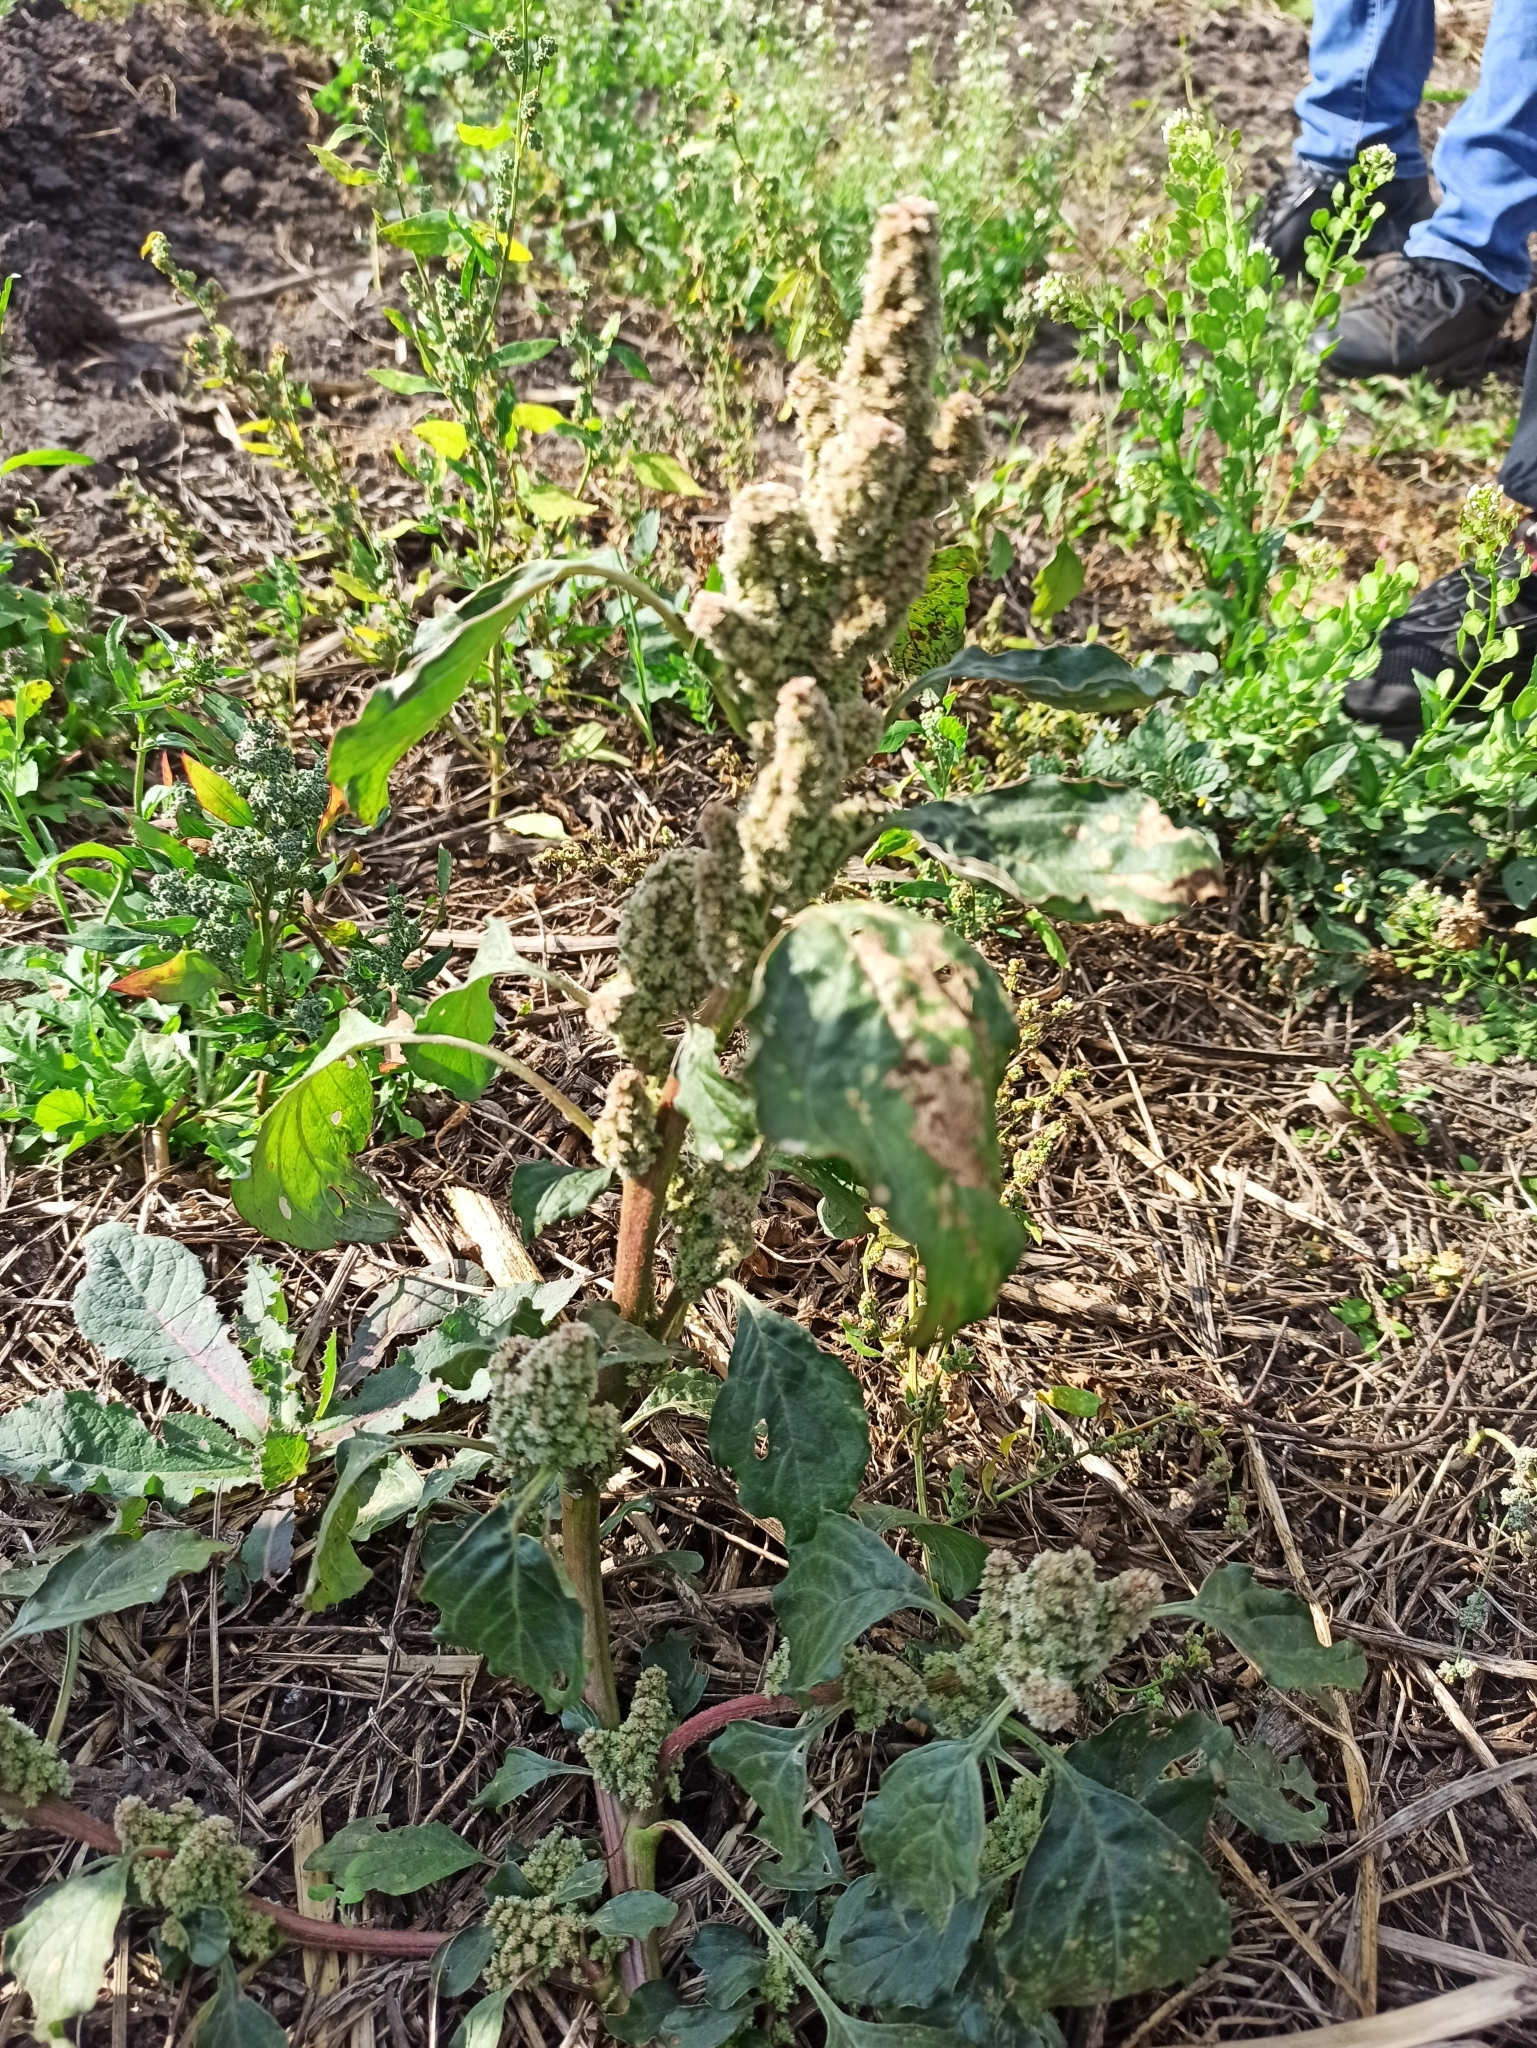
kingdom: Plantae
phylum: Tracheophyta
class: Magnoliopsida
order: Caryophyllales
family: Amaranthaceae
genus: Amaranthus
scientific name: Amaranthus retroflexus
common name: Redroot amaranth
